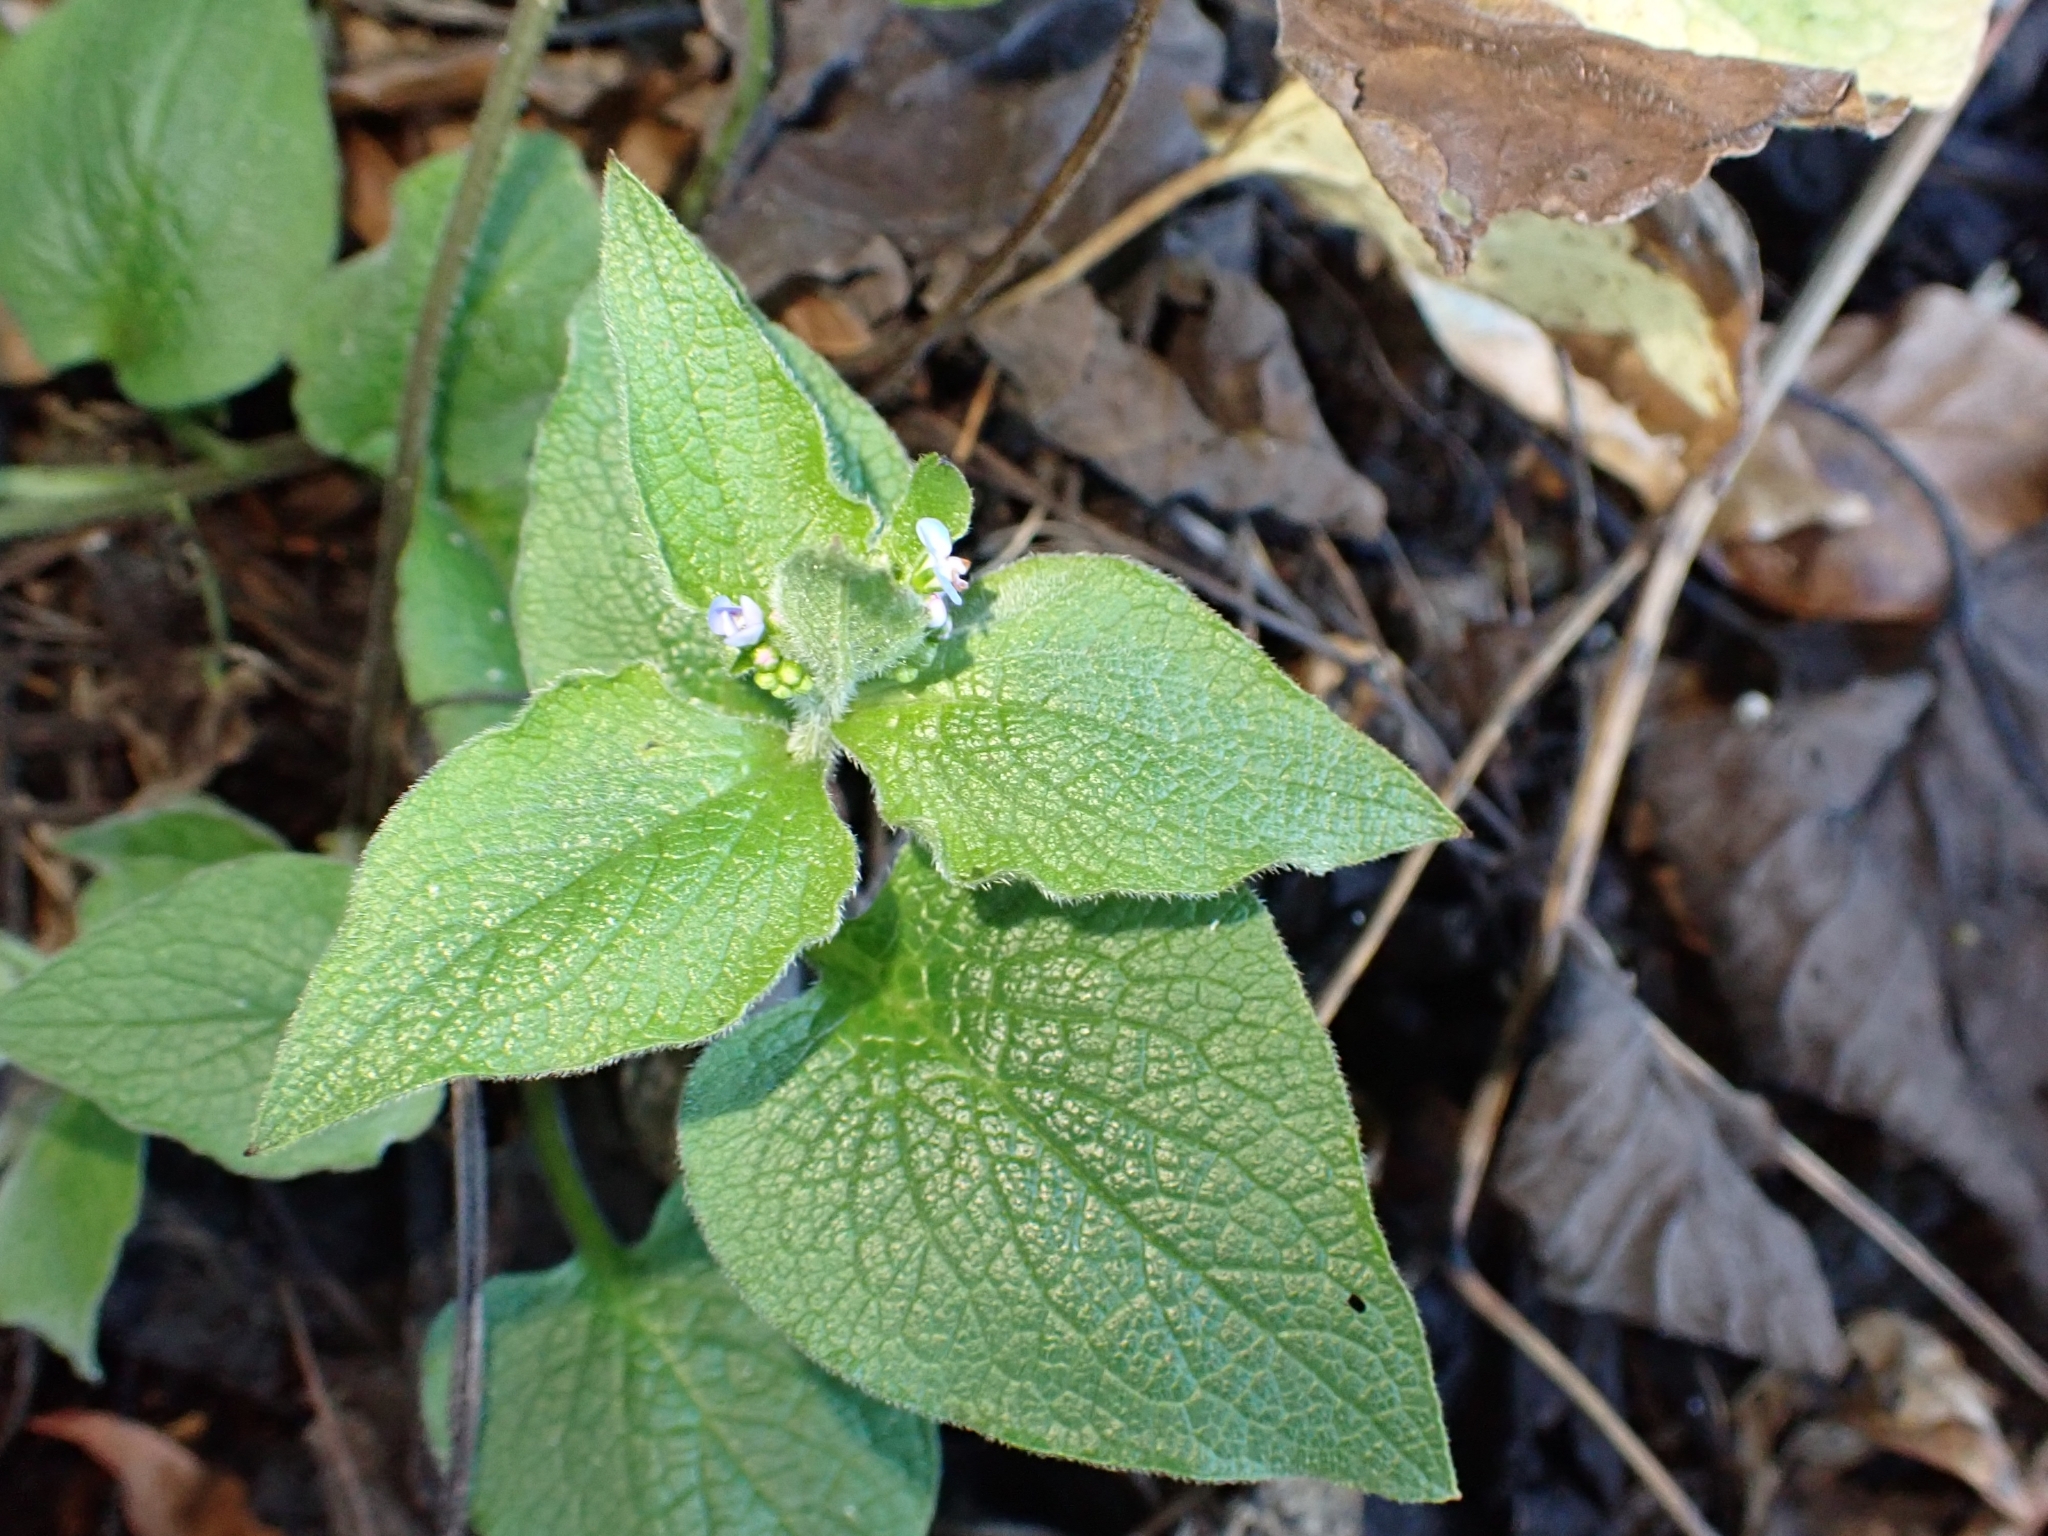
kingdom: Plantae
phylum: Tracheophyta
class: Magnoliopsida
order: Boraginales
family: Boraginaceae
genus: Brunnera
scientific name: Brunnera macrophylla
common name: Great forget-me-not
